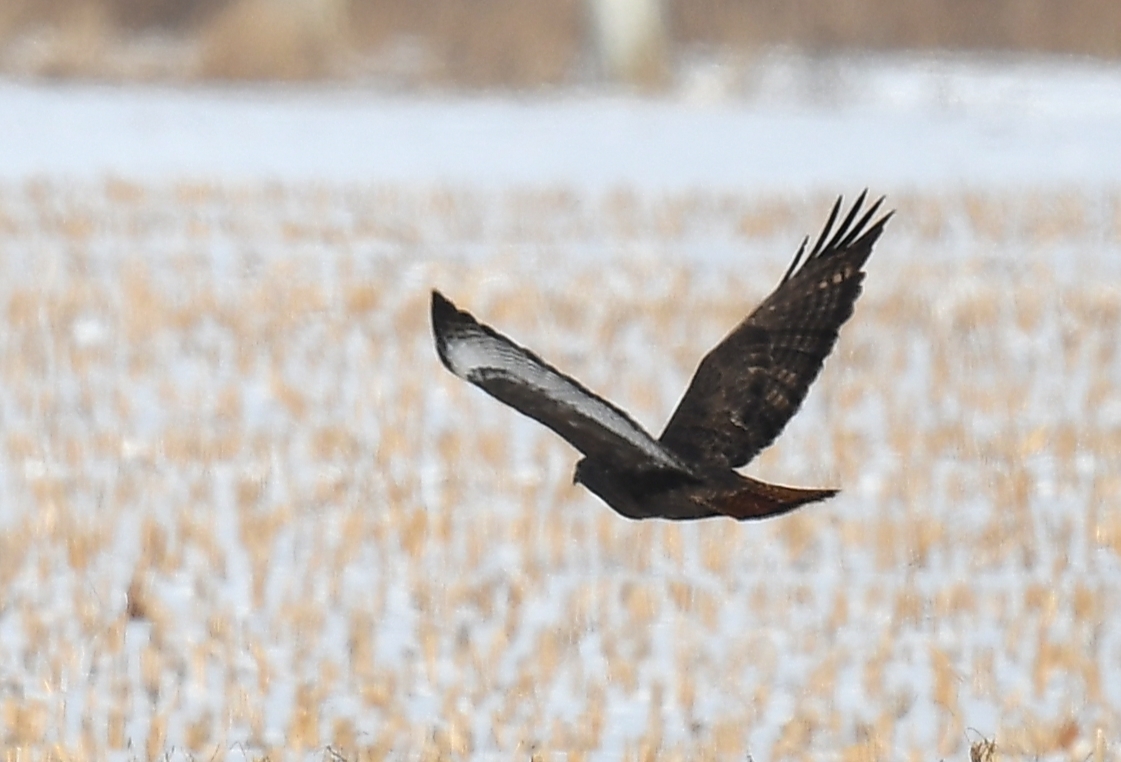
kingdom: Animalia
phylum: Chordata
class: Aves
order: Accipitriformes
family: Accipitridae
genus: Buteo
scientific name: Buteo jamaicensis
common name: Red-tailed hawk
